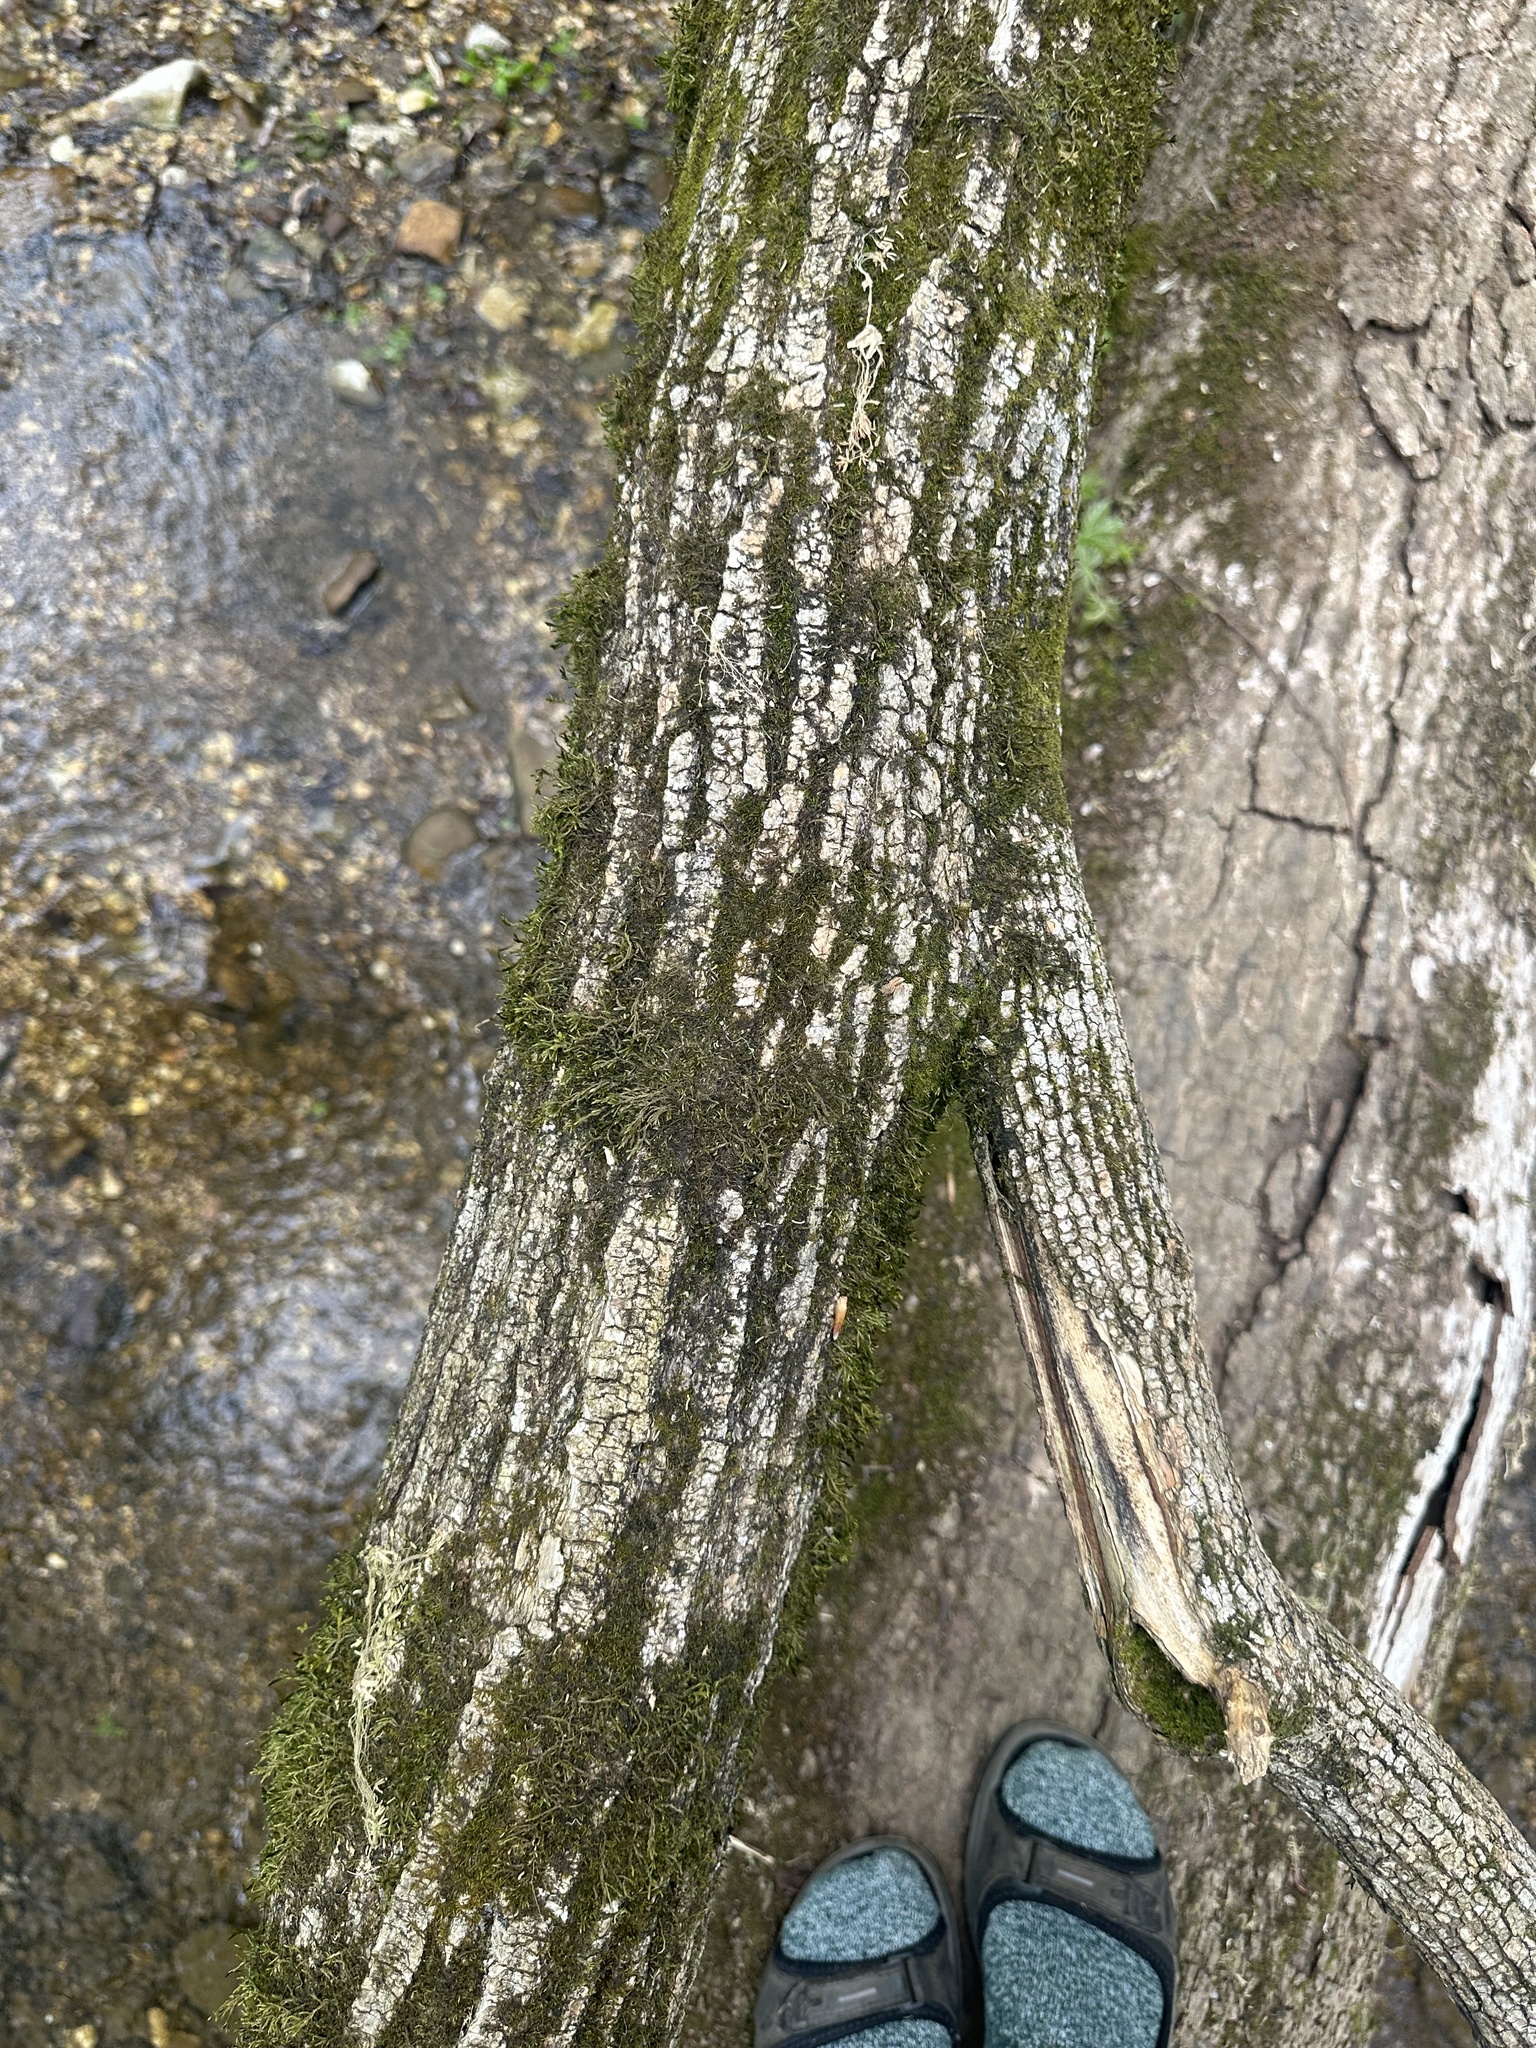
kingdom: Plantae
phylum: Tracheophyta
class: Magnoliopsida
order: Sapindales
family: Sapindaceae
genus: Acer
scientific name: Acer negundo
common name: Ashleaf maple
